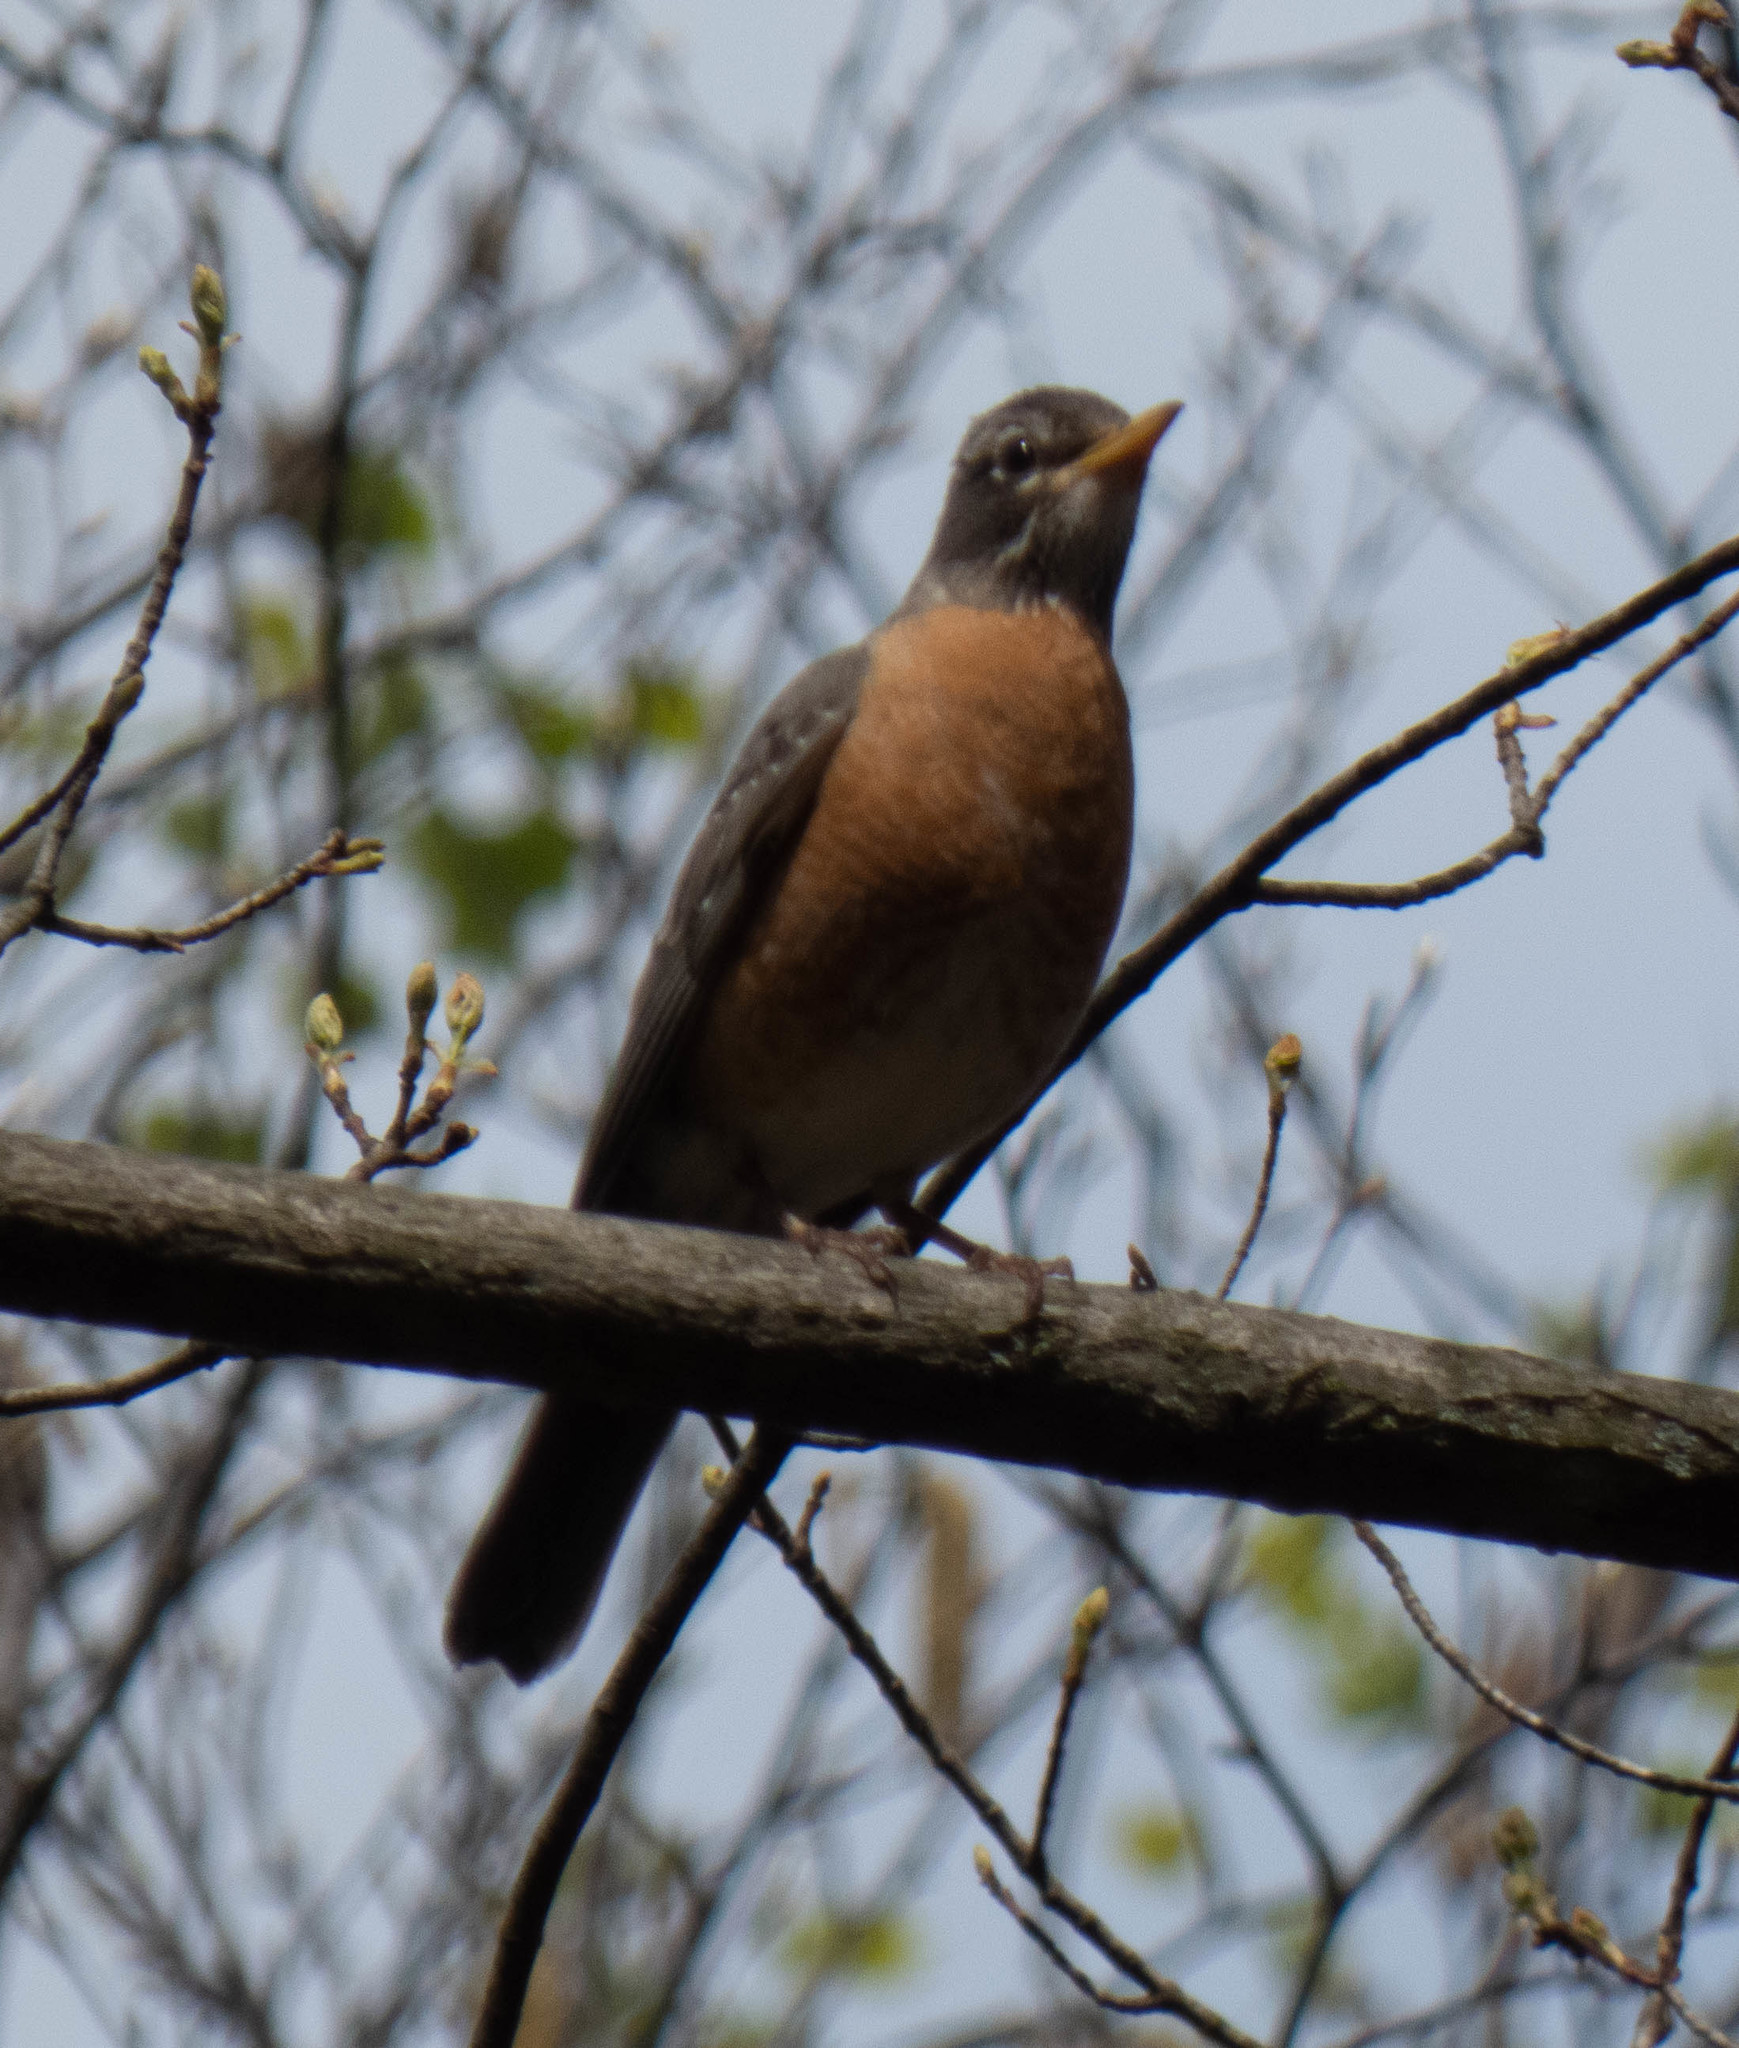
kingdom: Animalia
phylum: Chordata
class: Aves
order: Passeriformes
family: Turdidae
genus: Turdus
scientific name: Turdus migratorius
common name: American robin
